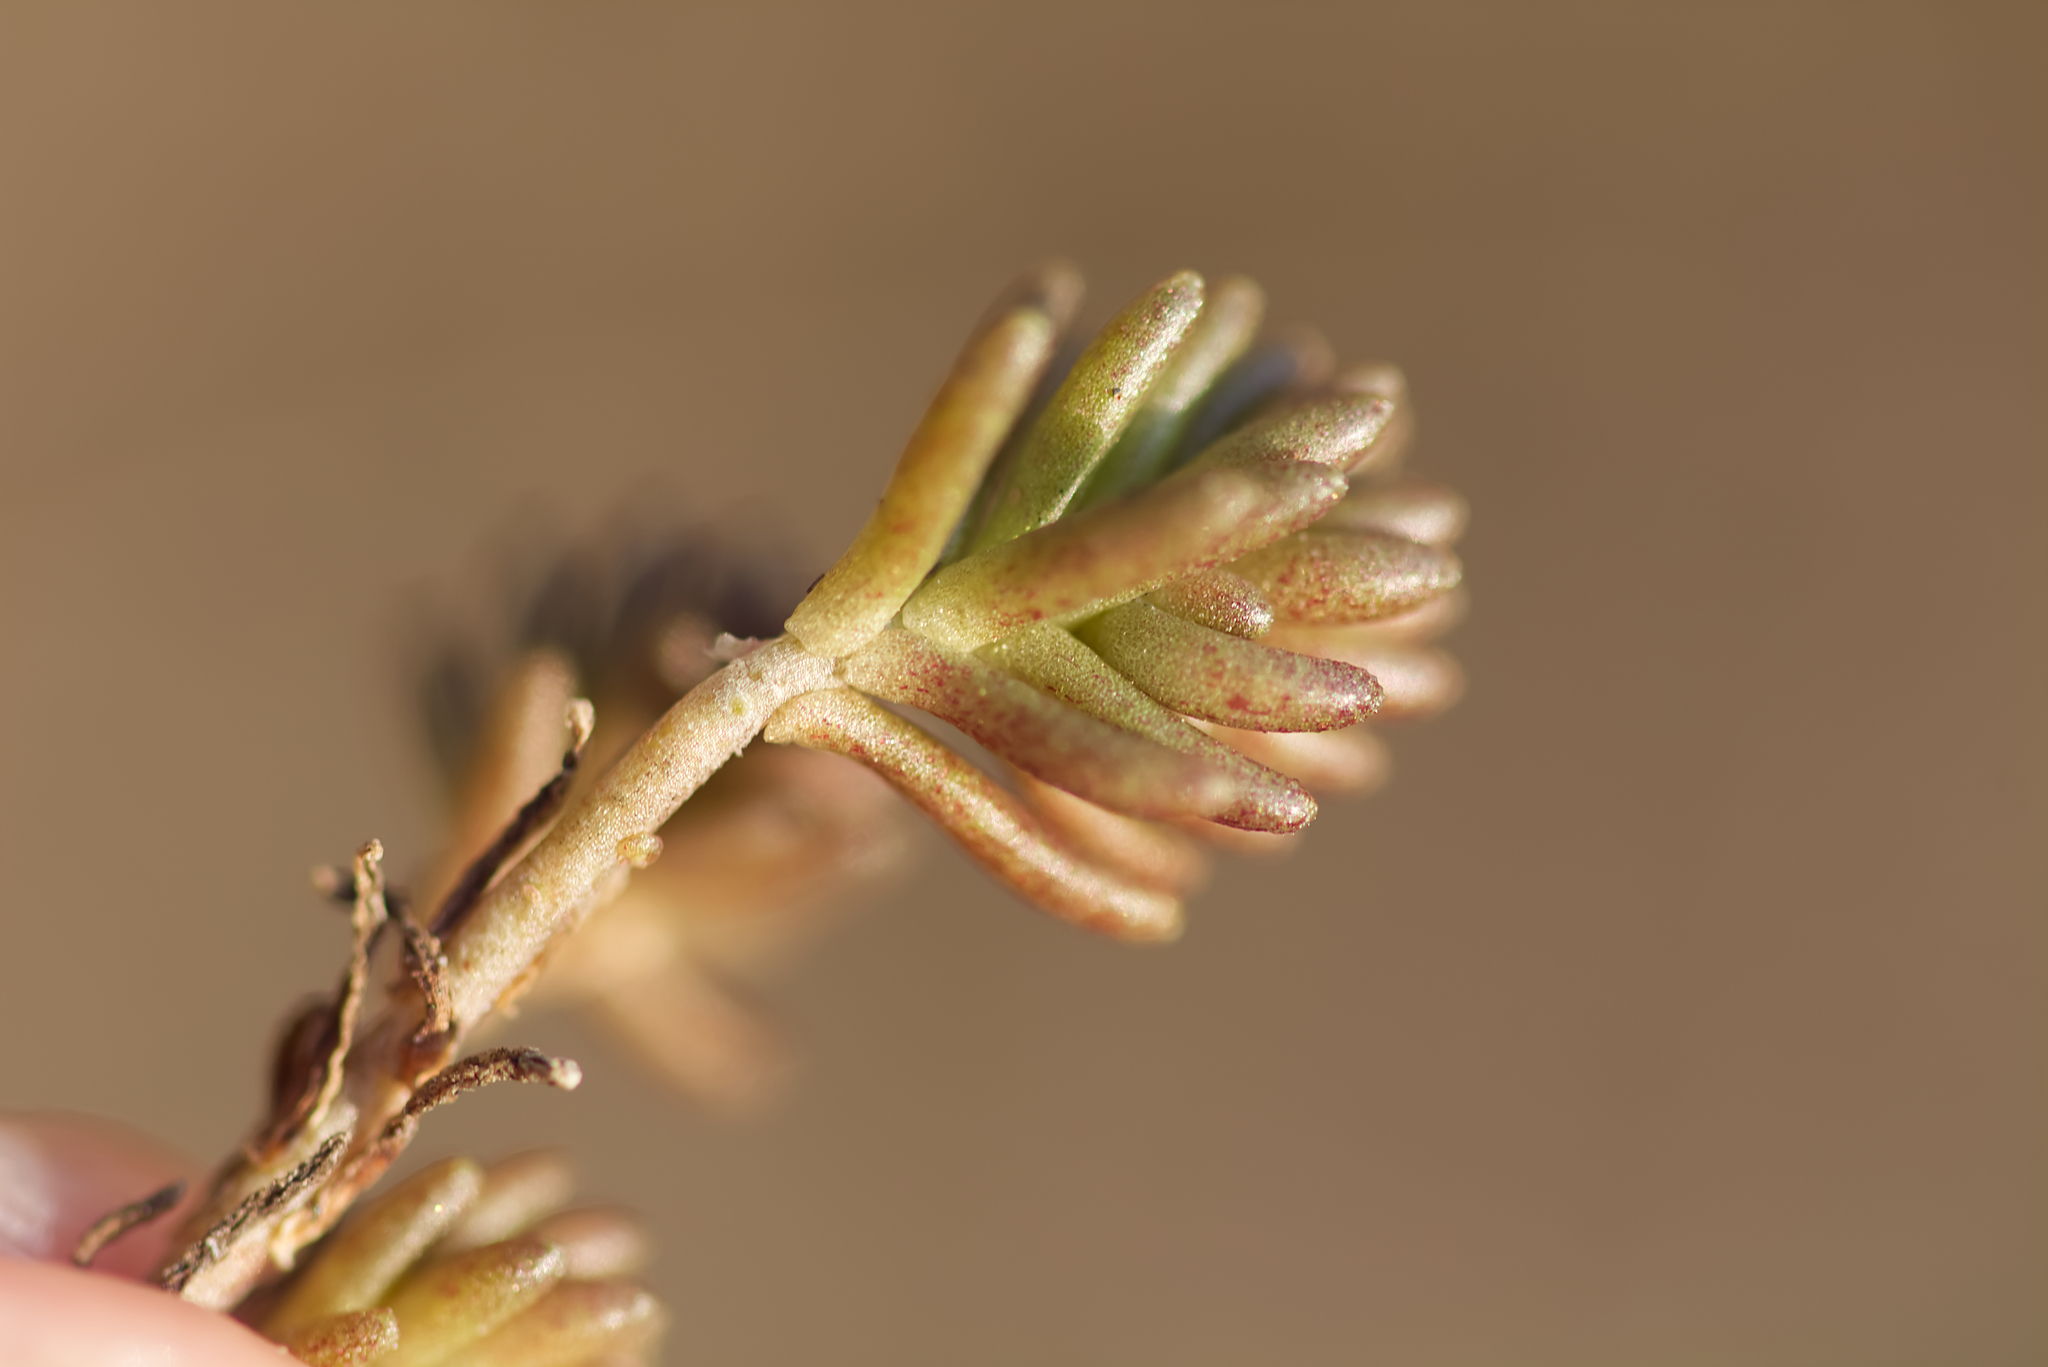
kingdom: Plantae
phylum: Tracheophyta
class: Magnoliopsida
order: Saxifragales
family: Crassulaceae
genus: Sedum
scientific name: Sedum sexangulare
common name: Tasteless stonecrop
